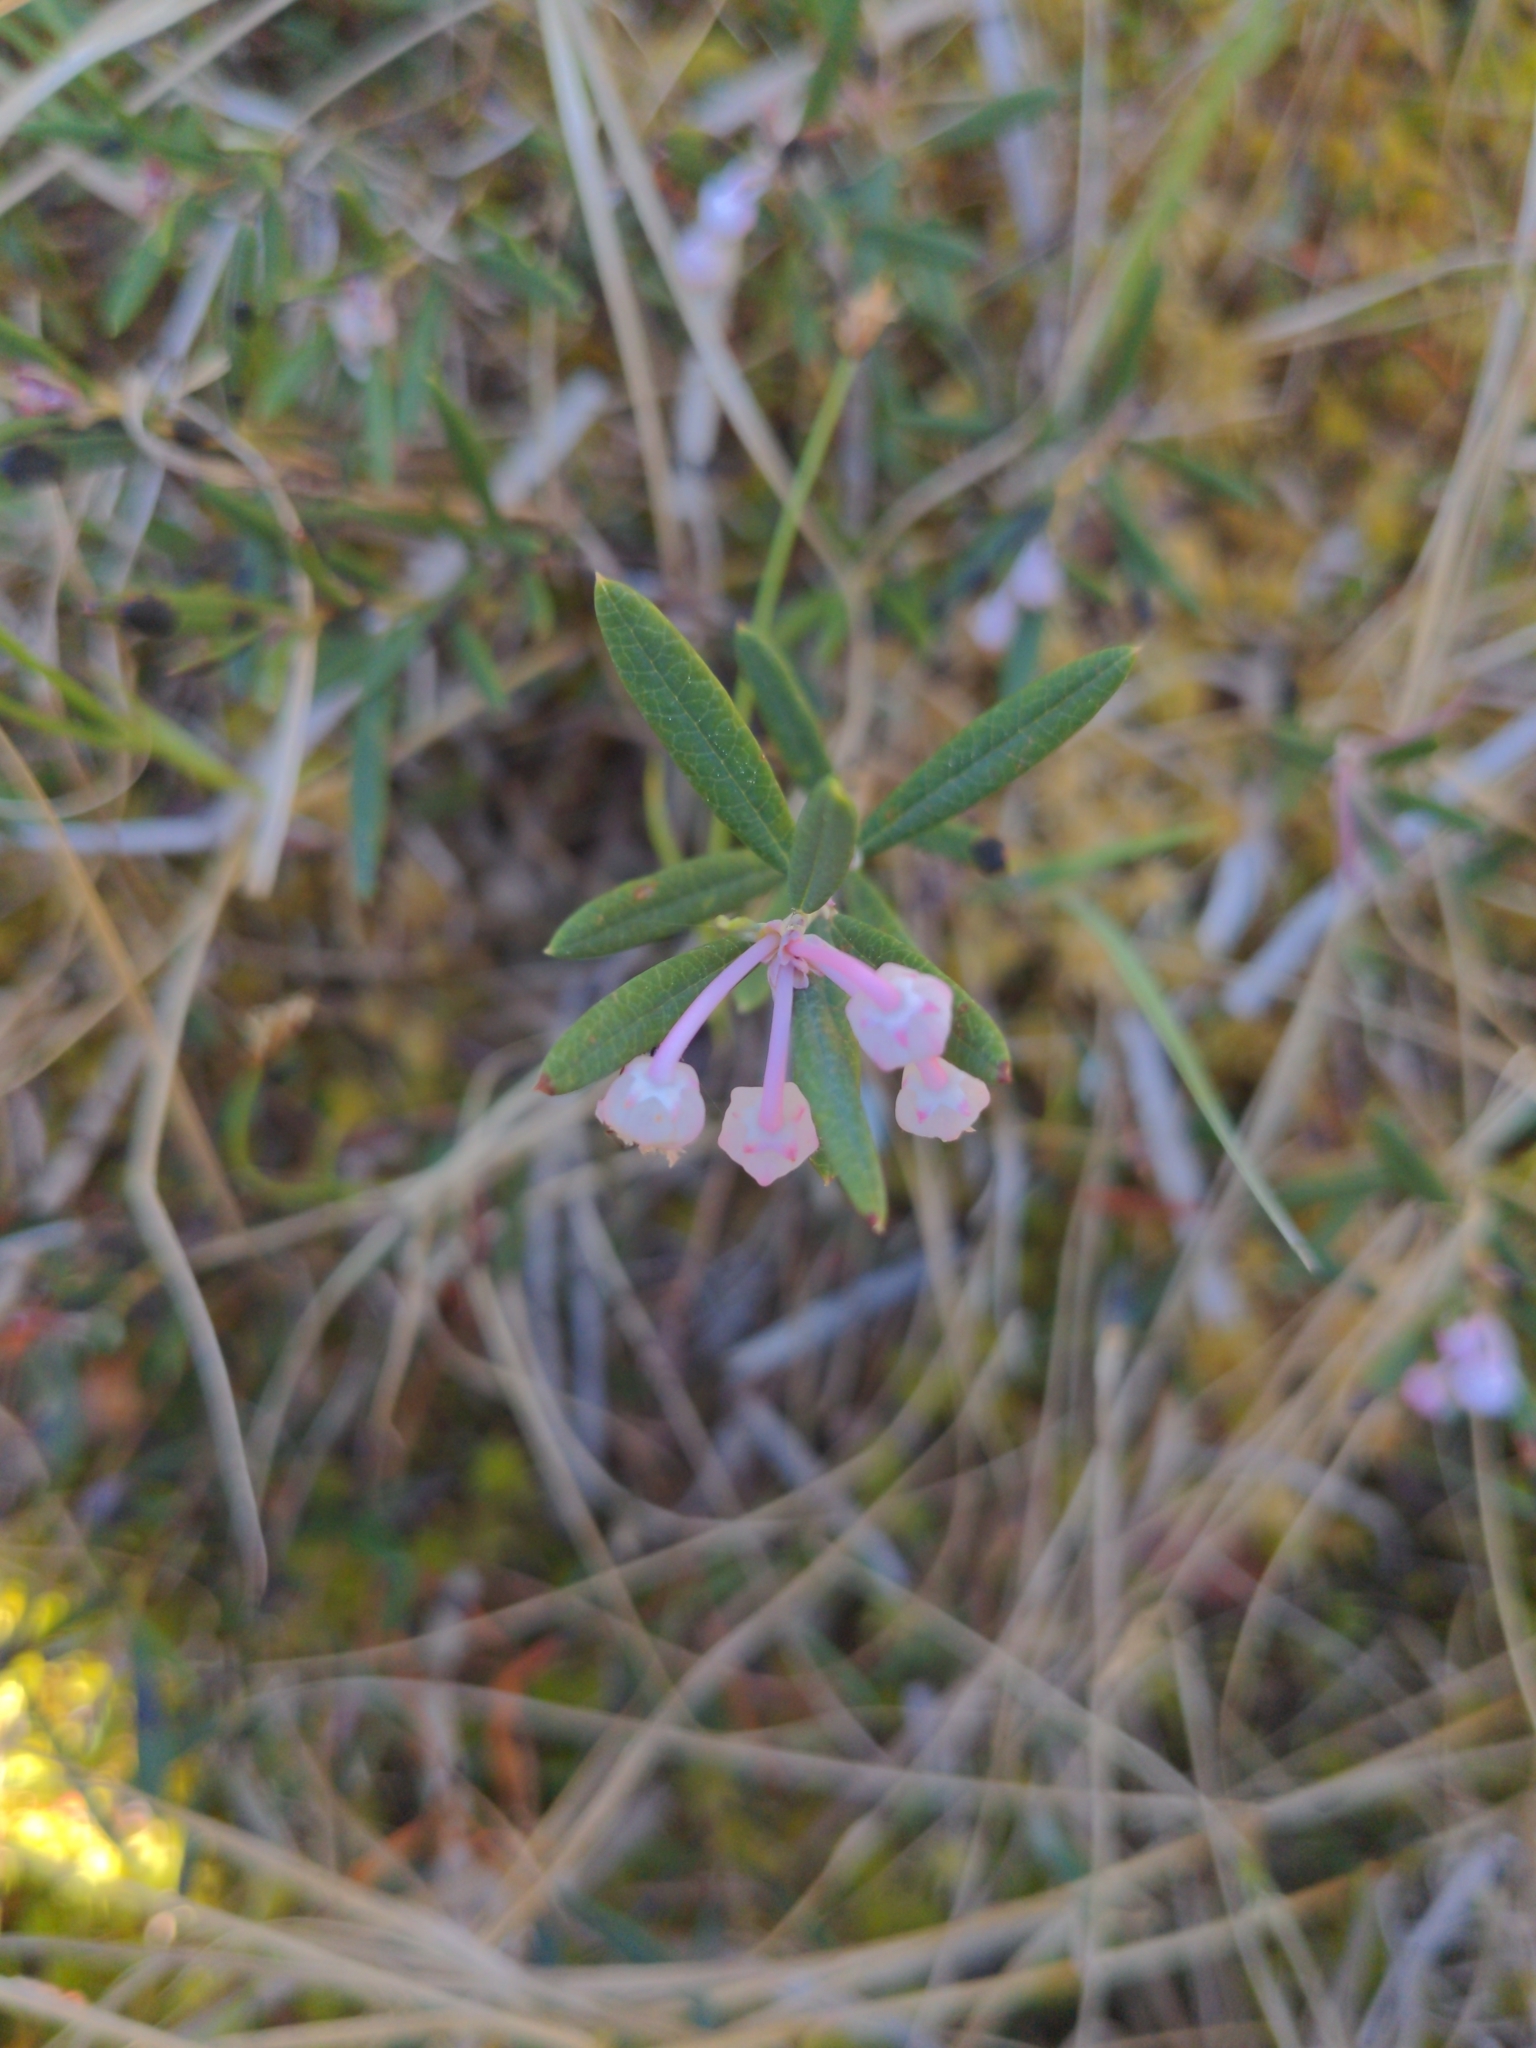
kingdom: Plantae
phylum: Tracheophyta
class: Magnoliopsida
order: Ericales
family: Ericaceae
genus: Andromeda
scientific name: Andromeda polifolia
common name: Bog-rosemary
